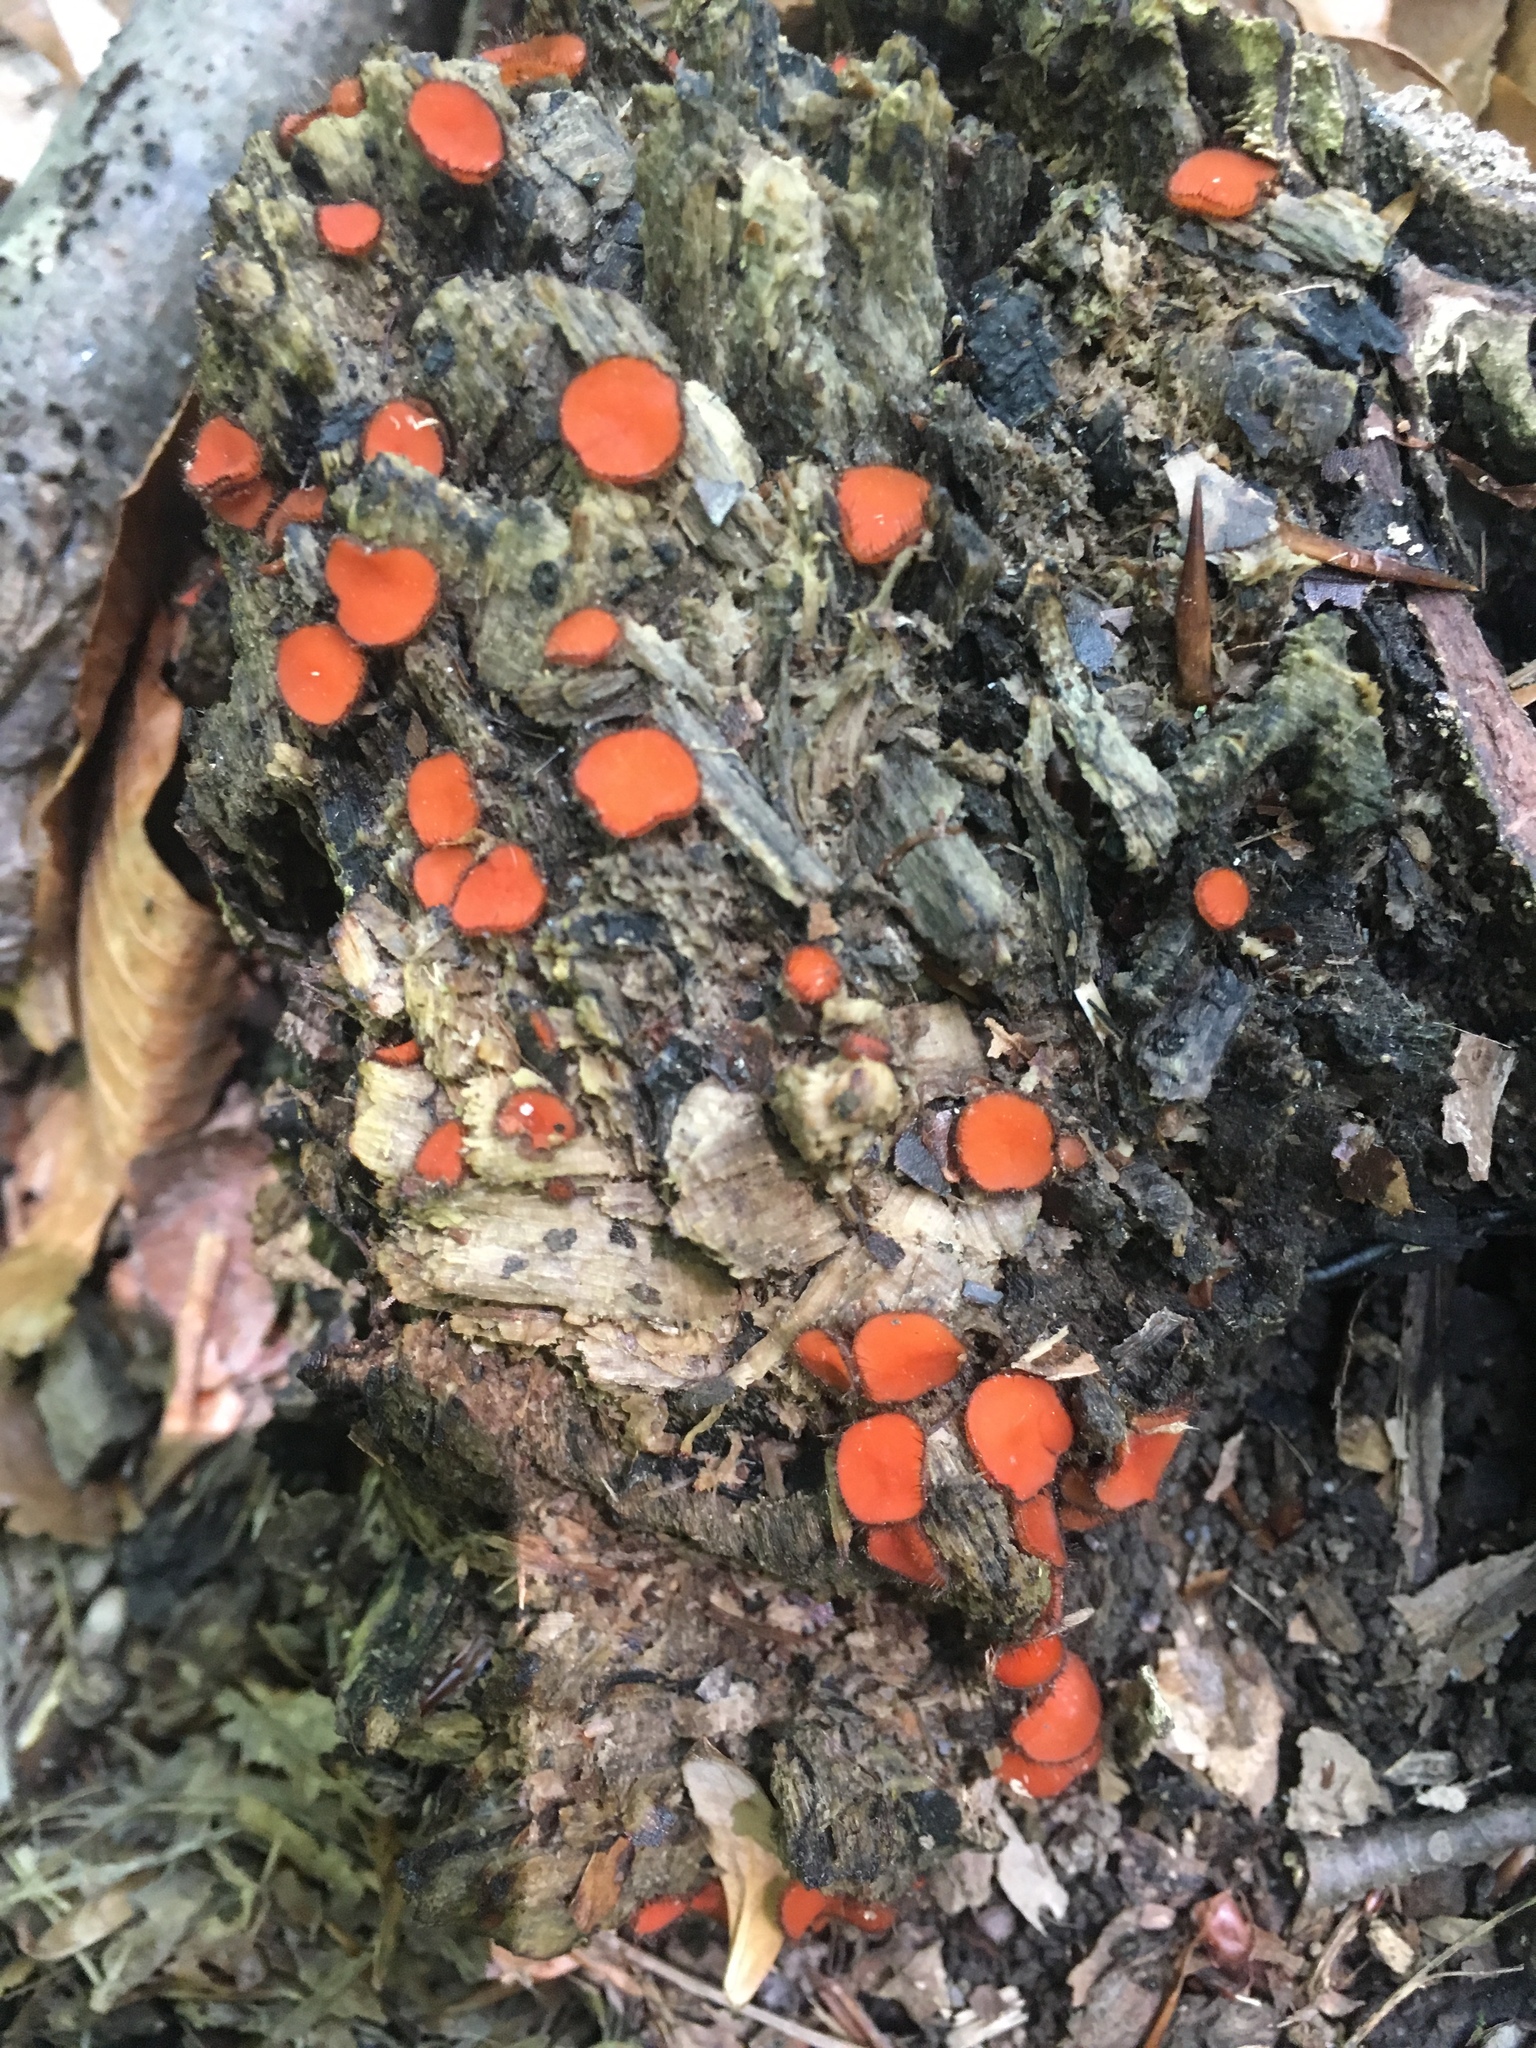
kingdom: Fungi
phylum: Ascomycota
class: Pezizomycetes
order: Pezizales
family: Pyronemataceae
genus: Scutellinia
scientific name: Scutellinia scutellata
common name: Common eyelash
